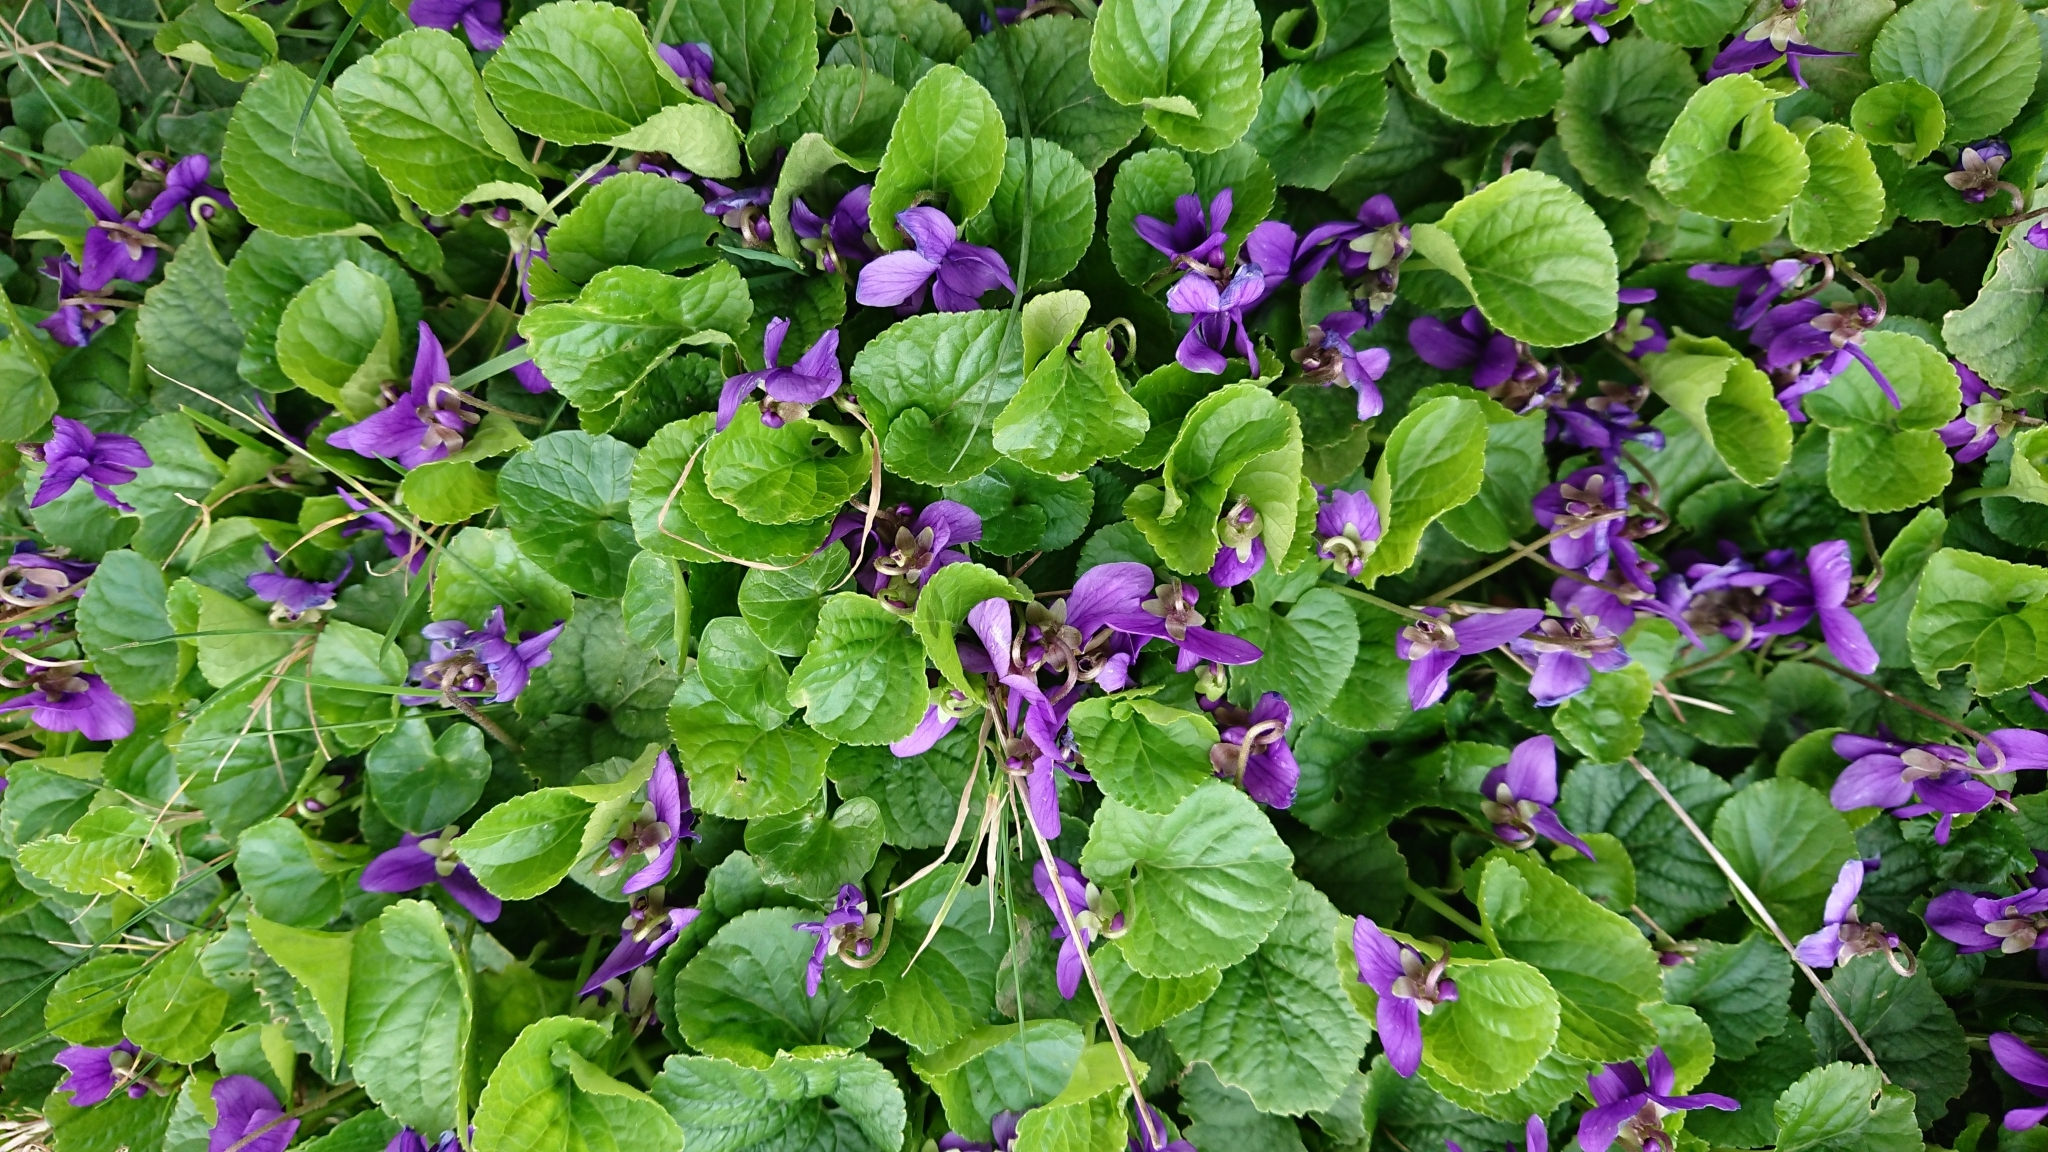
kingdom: Plantae
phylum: Tracheophyta
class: Magnoliopsida
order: Malpighiales
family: Violaceae
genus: Viola
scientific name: Viola odorata
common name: Sweet violet
